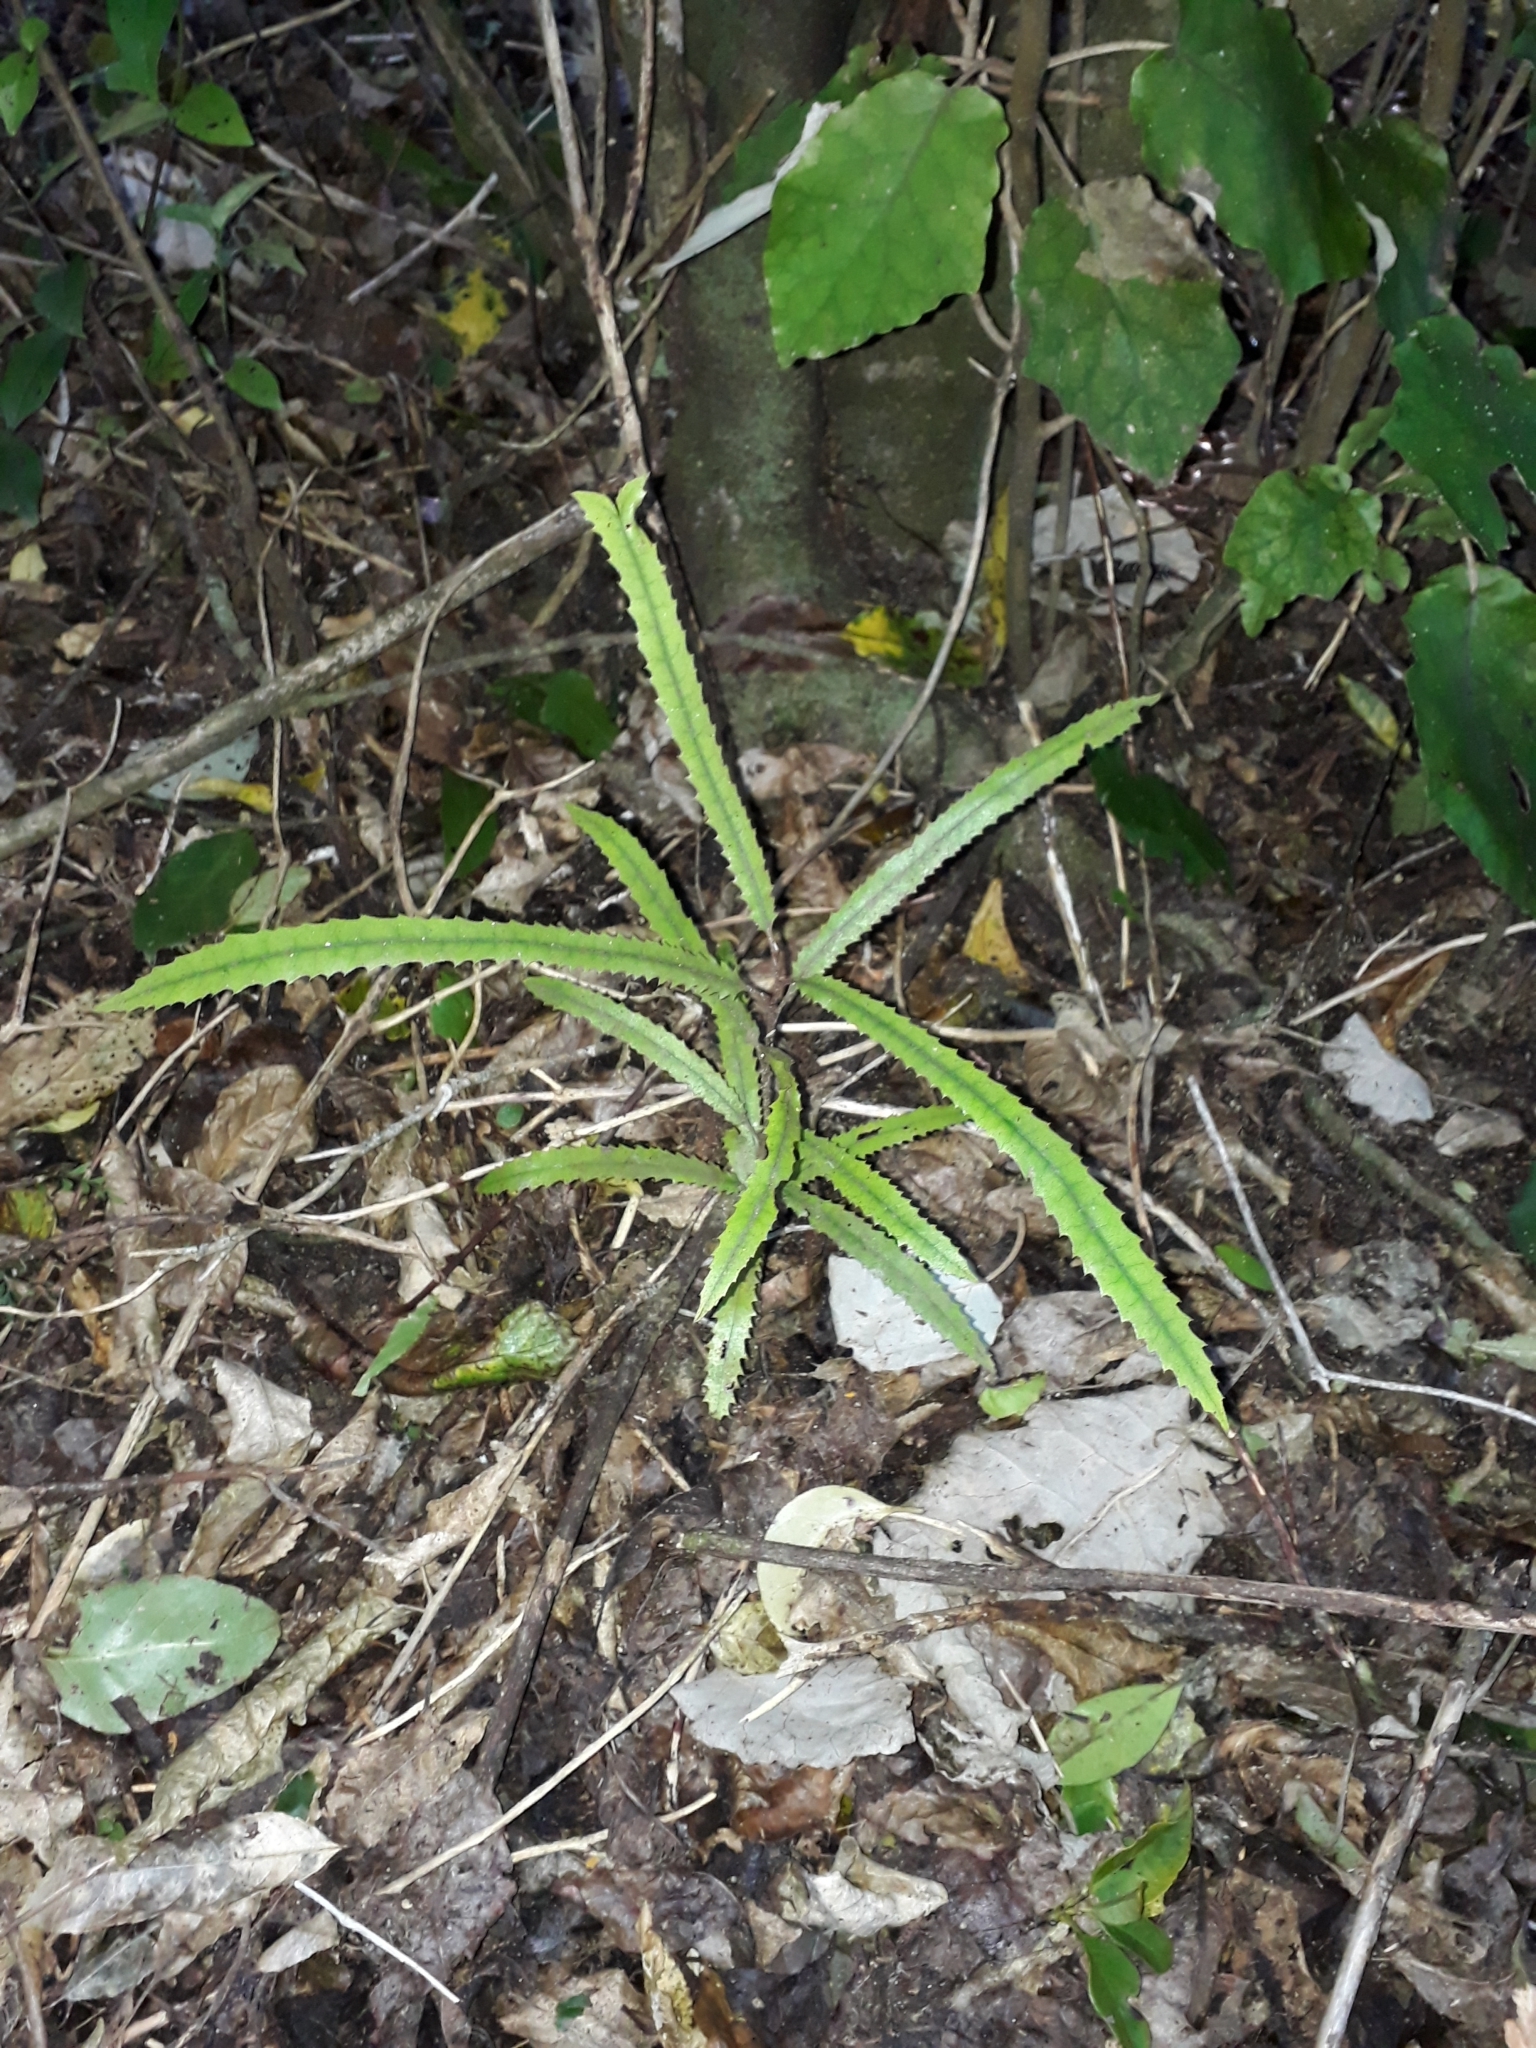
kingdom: Plantae
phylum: Tracheophyta
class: Magnoliopsida
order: Proteales
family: Proteaceae
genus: Knightia
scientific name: Knightia excelsa
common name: New zealand-honeysuckle
